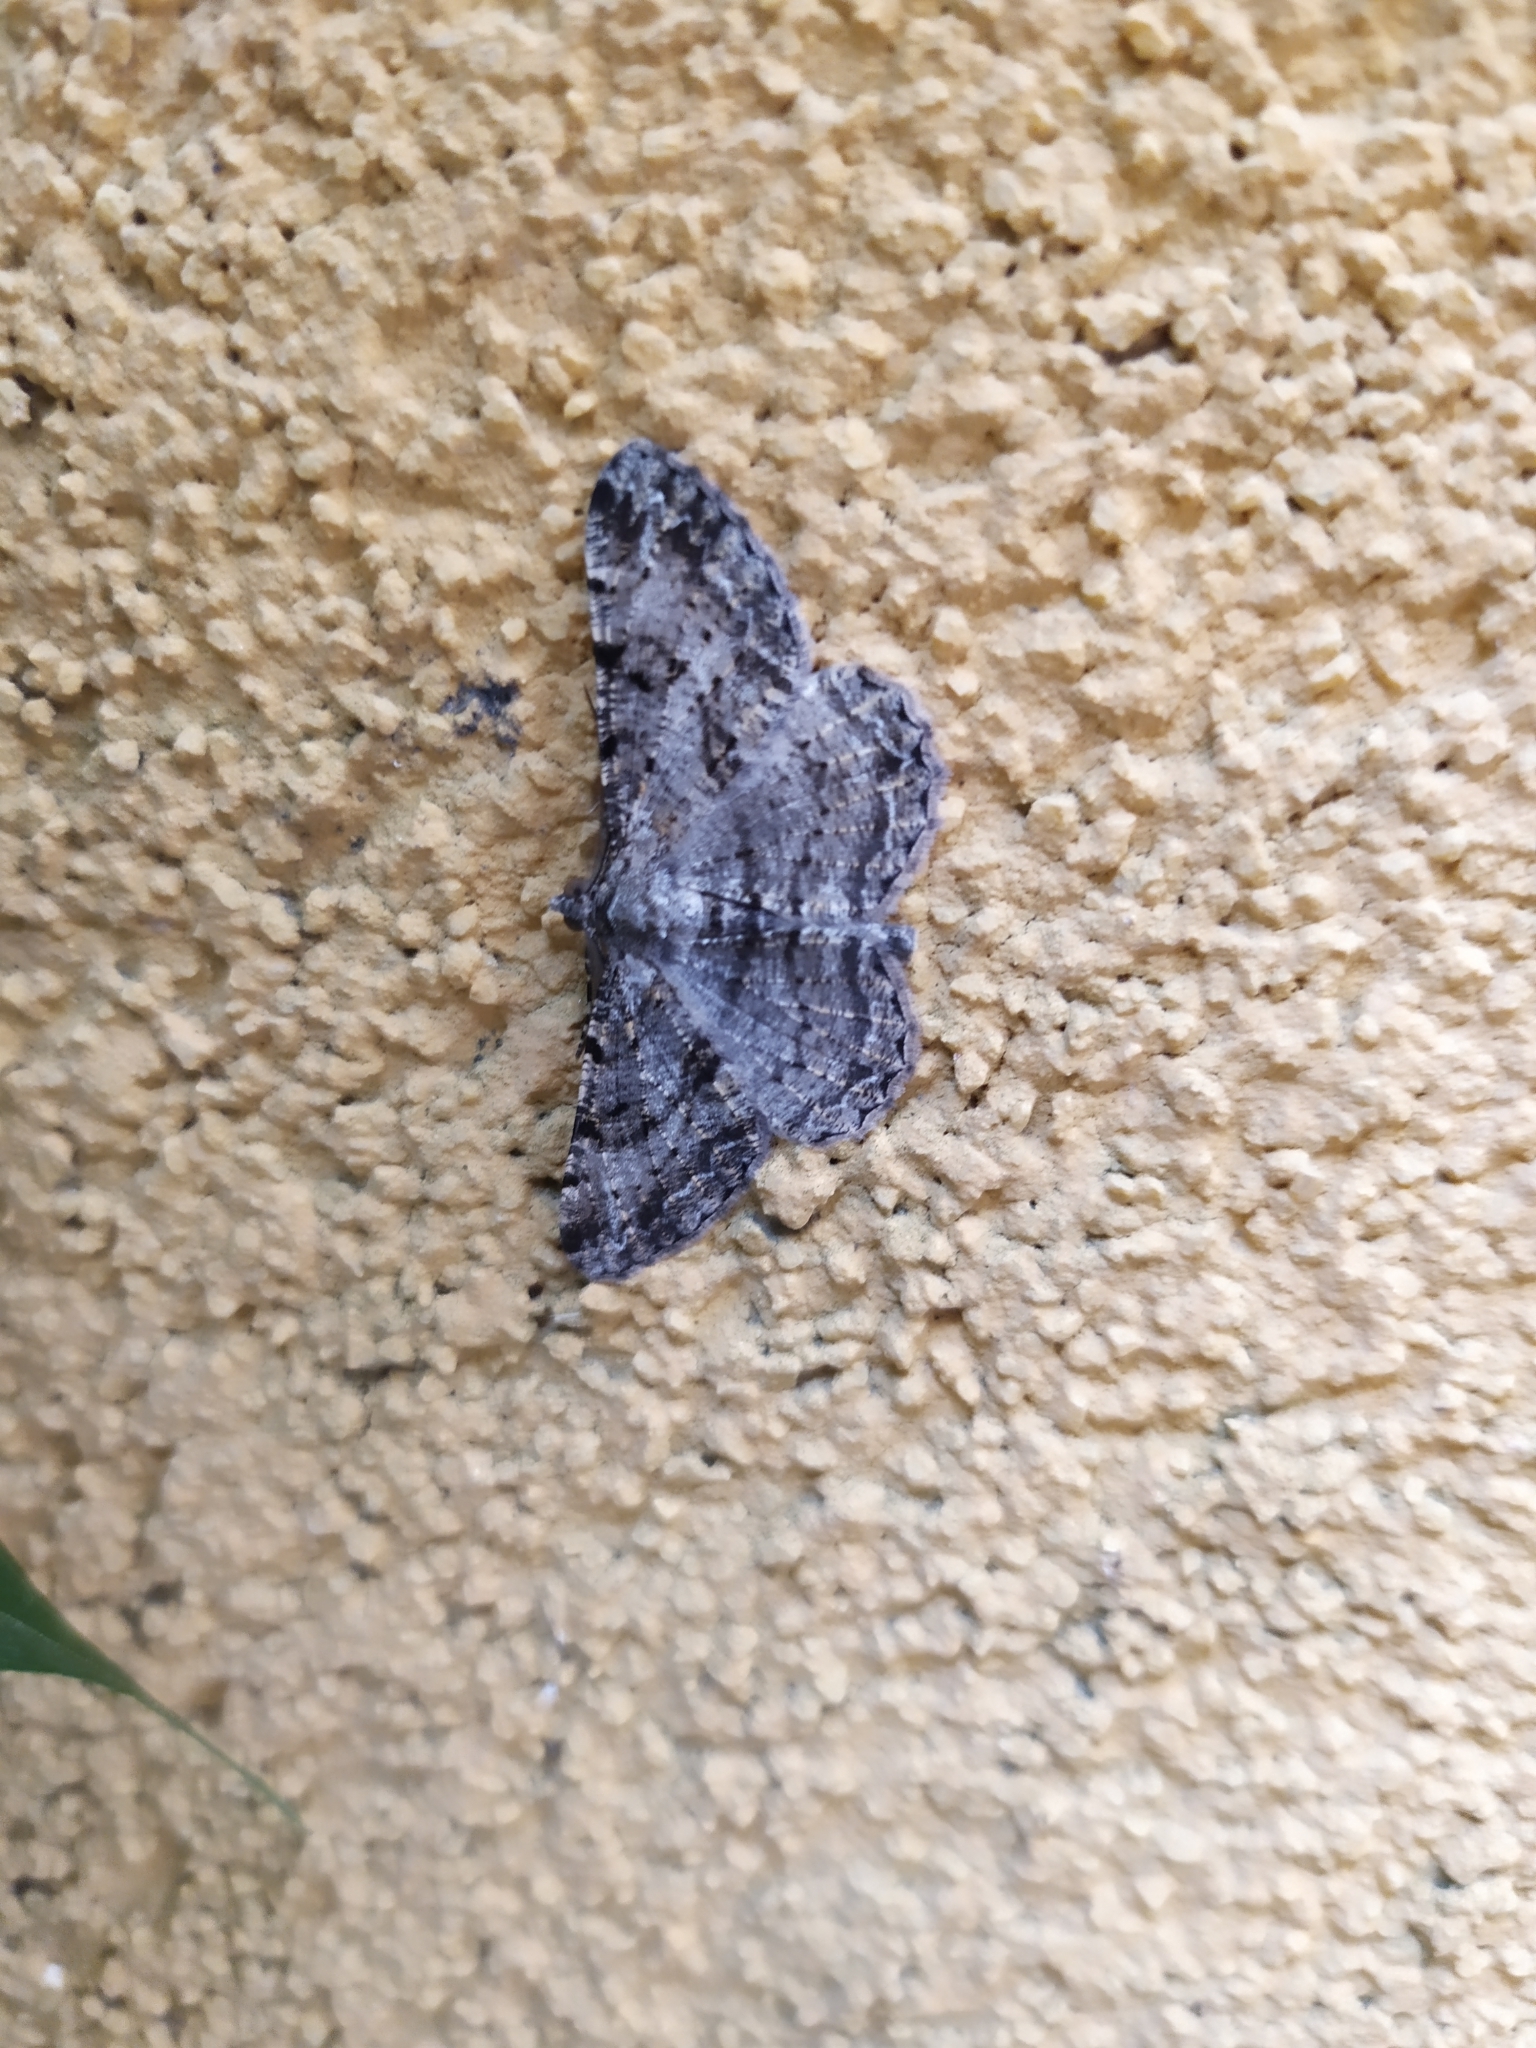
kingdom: Animalia
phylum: Arthropoda
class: Insecta
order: Lepidoptera
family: Geometridae
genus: Peribatodes
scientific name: Peribatodes rhomboidaria
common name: Willow beauty
